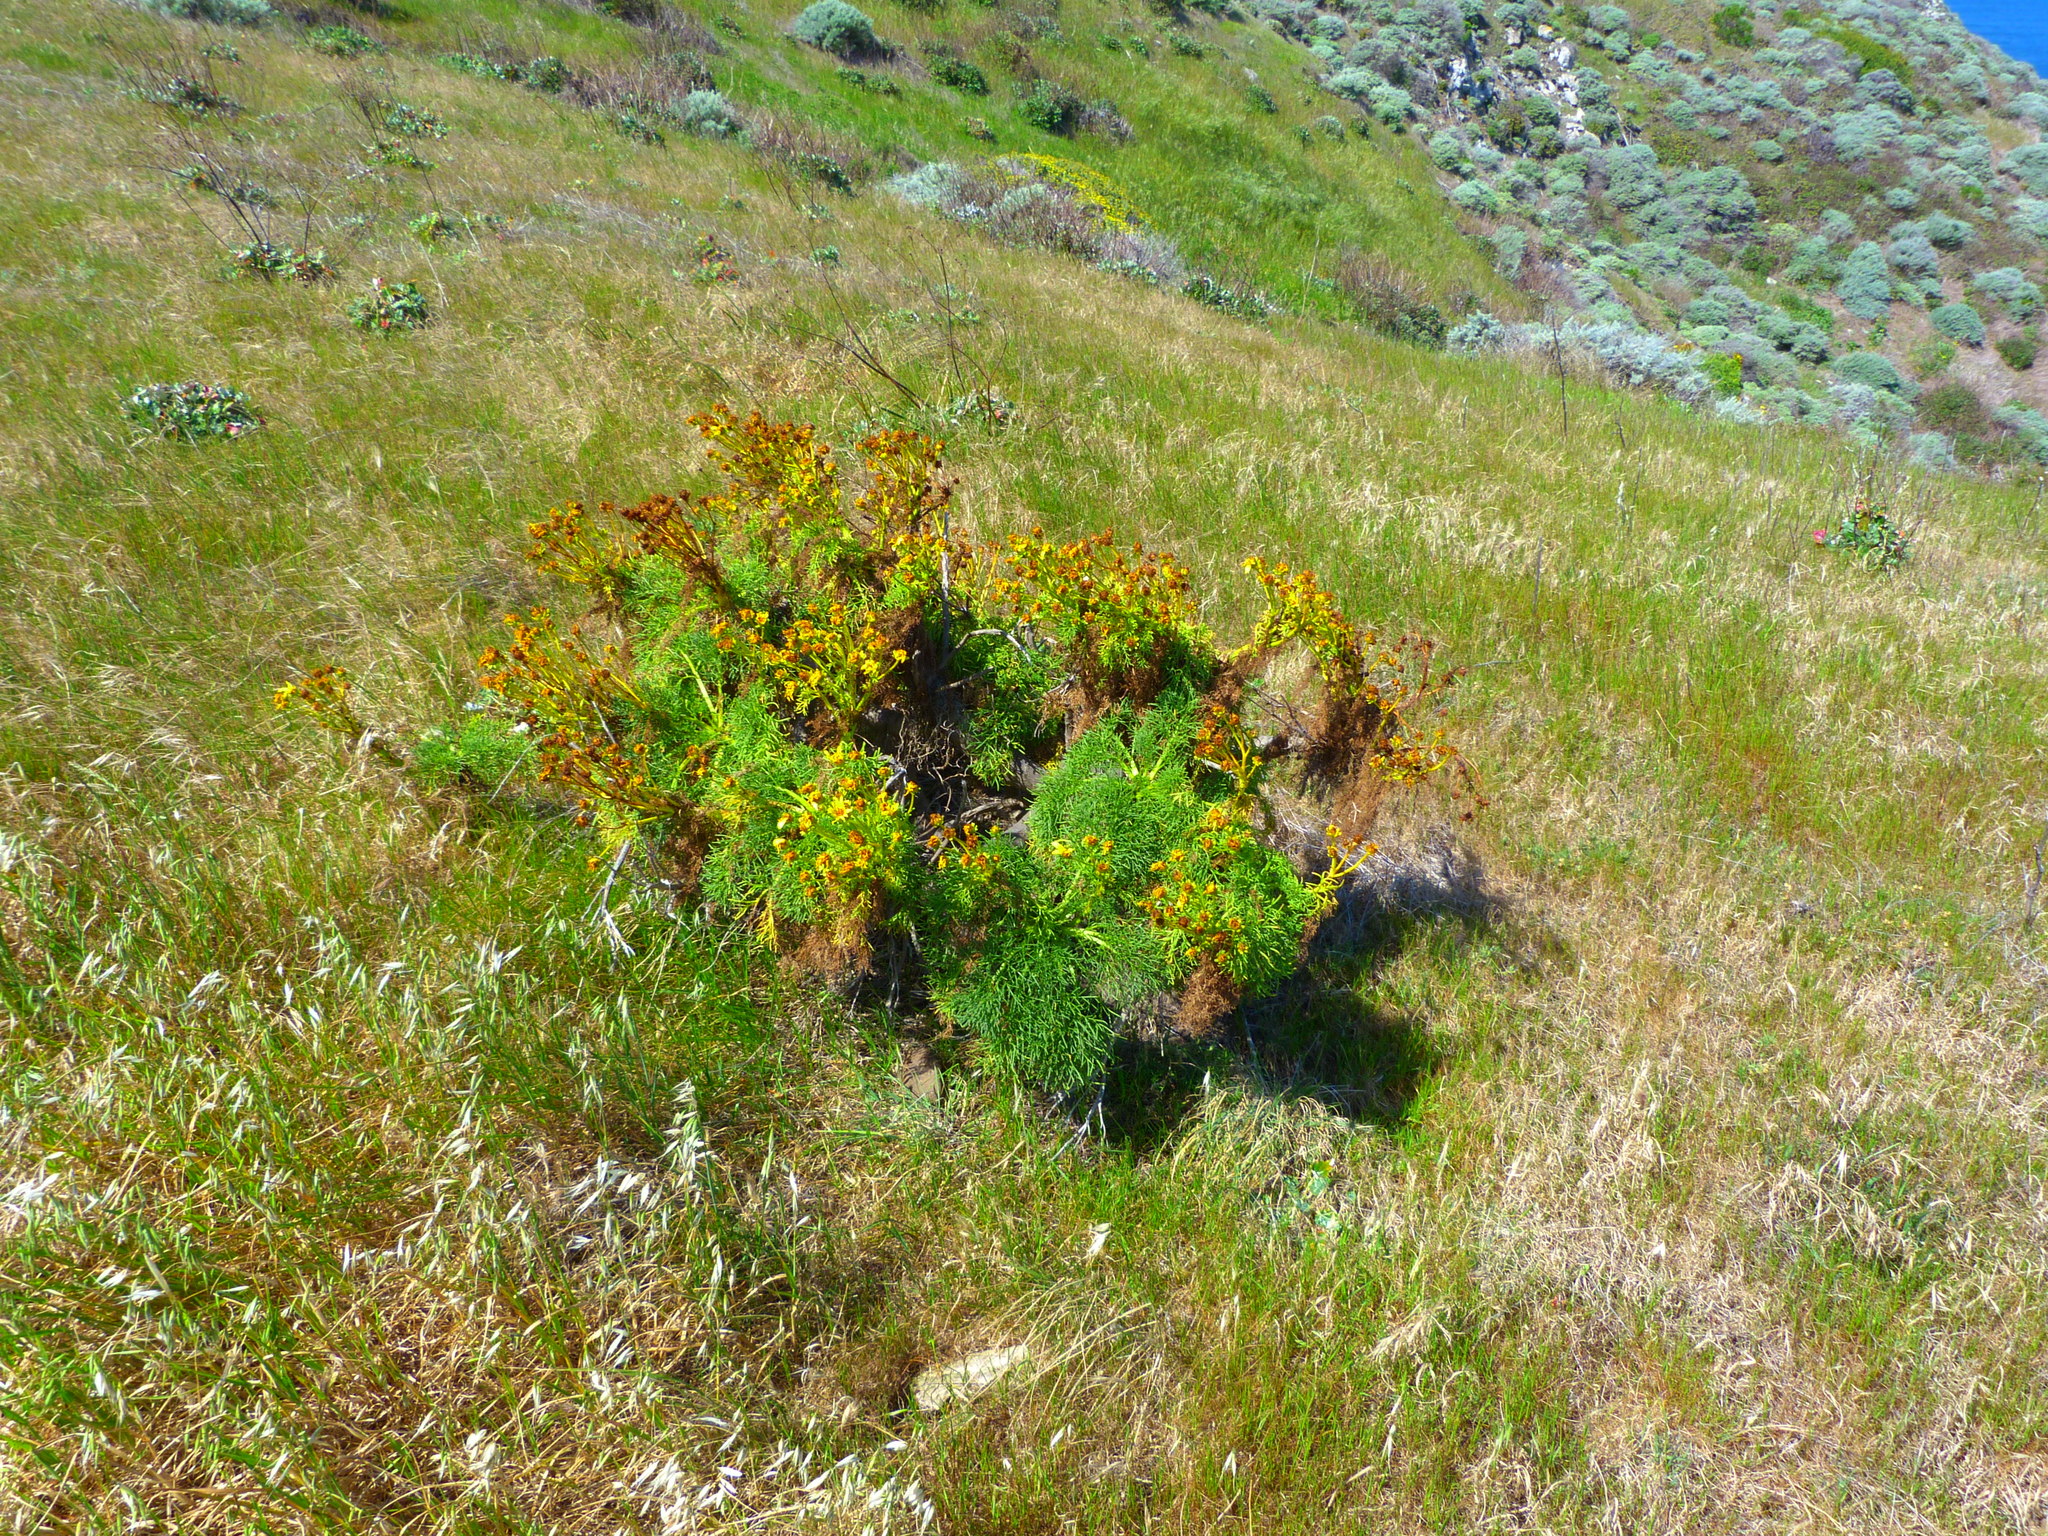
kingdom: Plantae
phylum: Tracheophyta
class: Magnoliopsida
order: Asterales
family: Asteraceae
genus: Coreopsis
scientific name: Coreopsis gigantea
